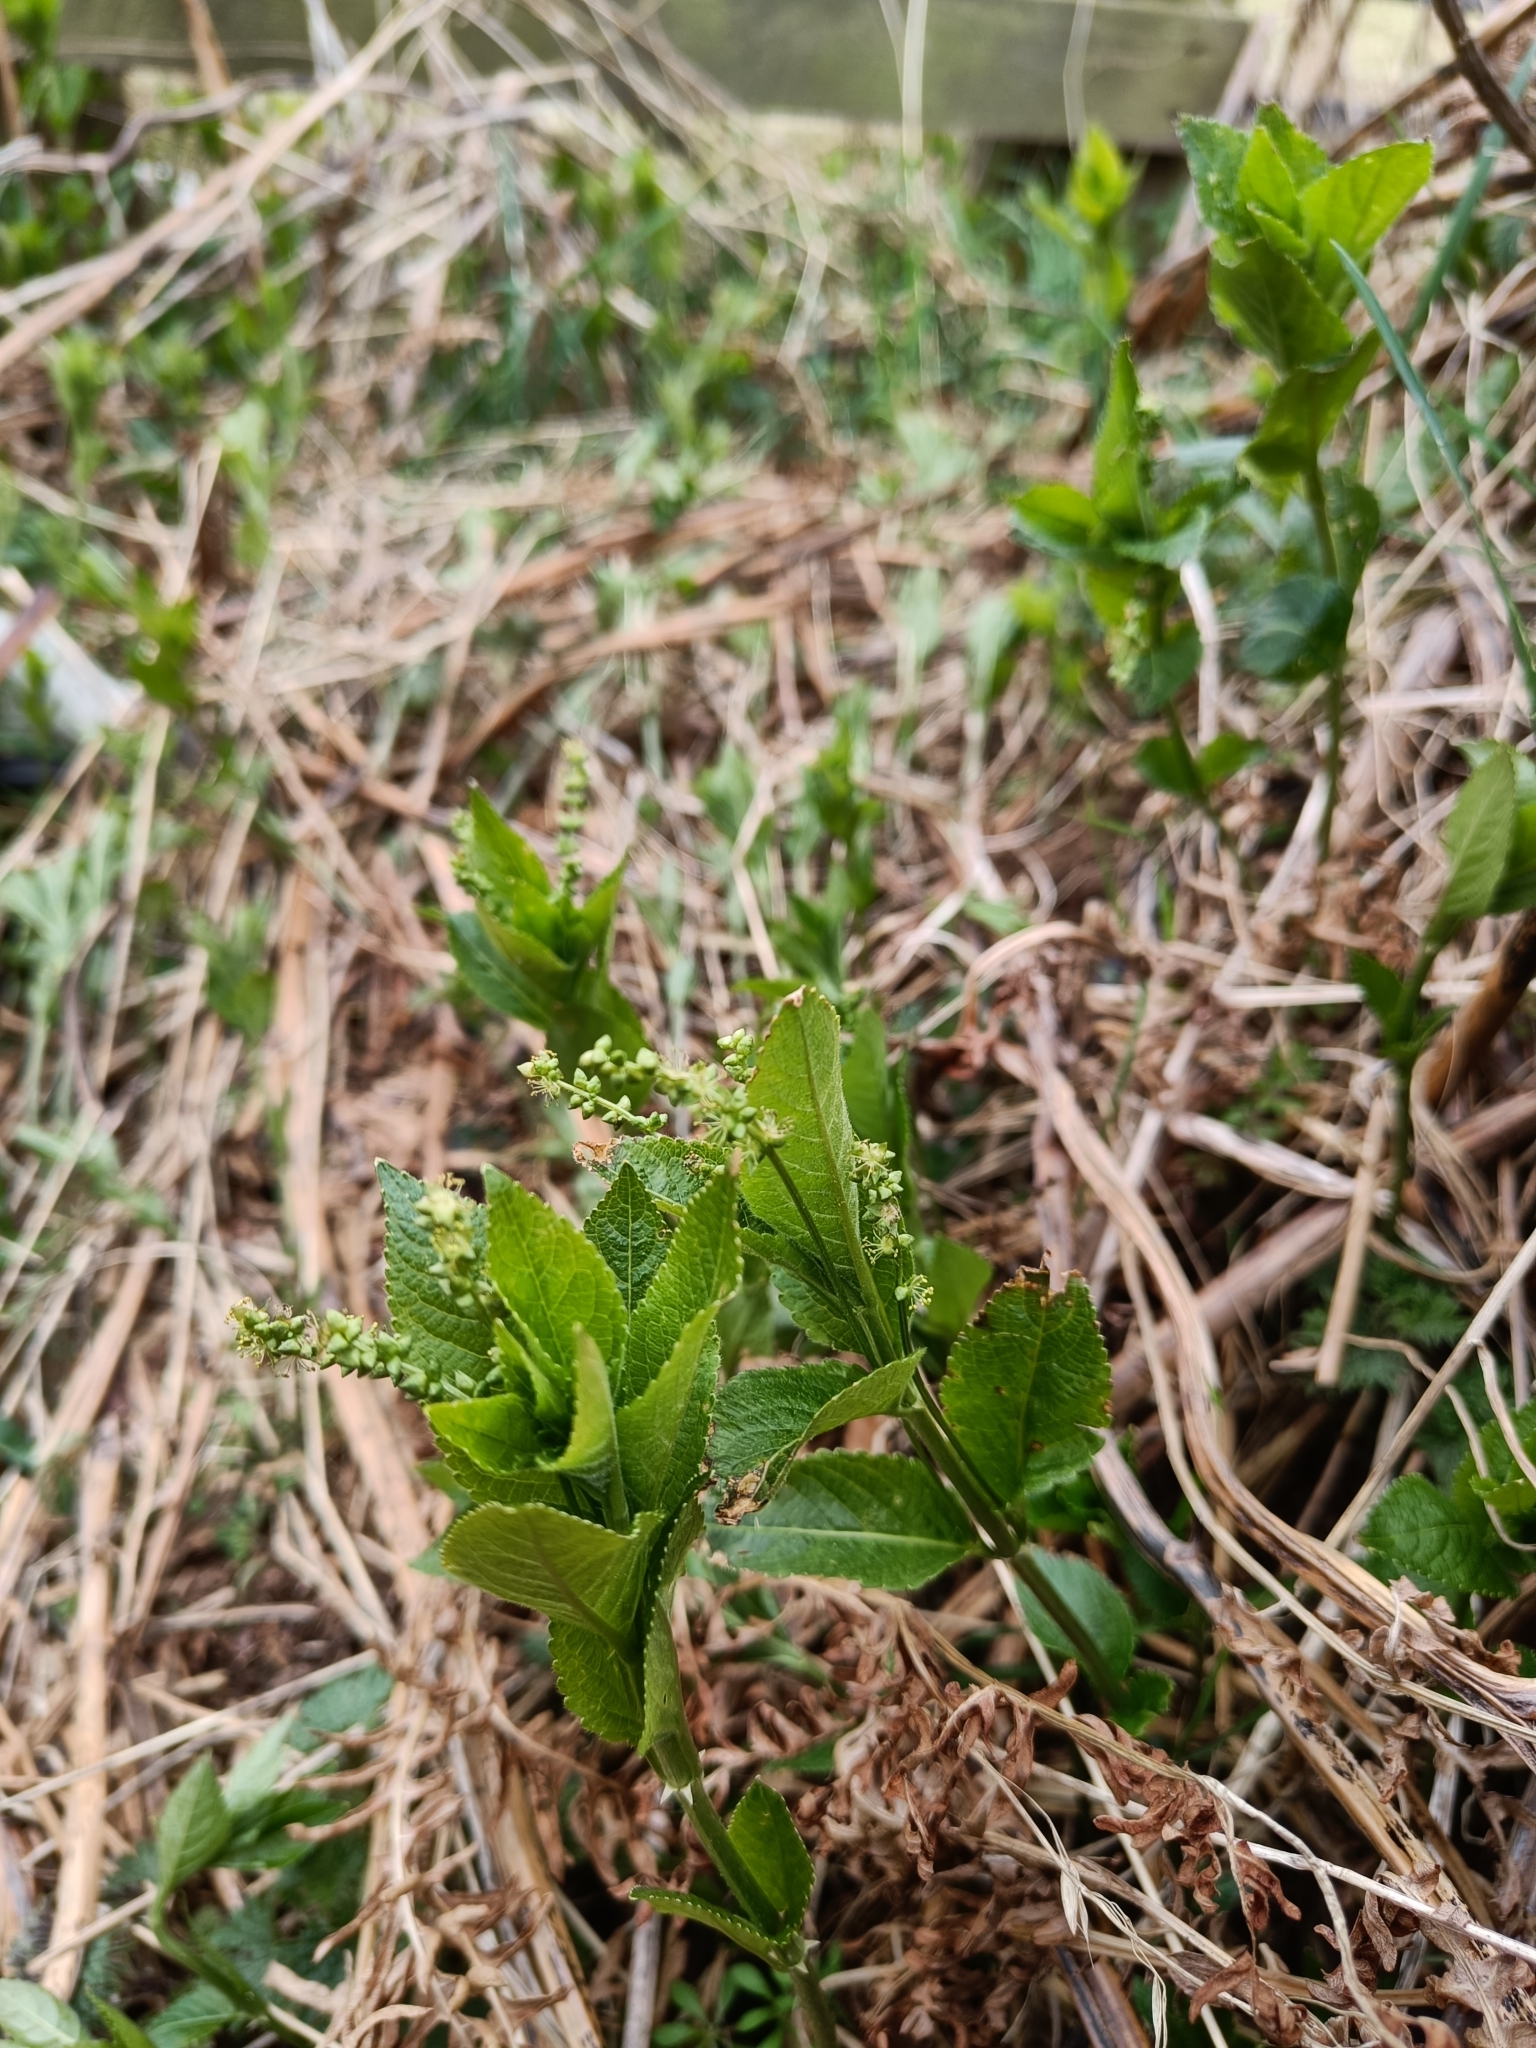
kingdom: Plantae
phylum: Tracheophyta
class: Magnoliopsida
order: Malpighiales
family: Euphorbiaceae
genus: Mercurialis
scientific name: Mercurialis perennis
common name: Dog mercury
